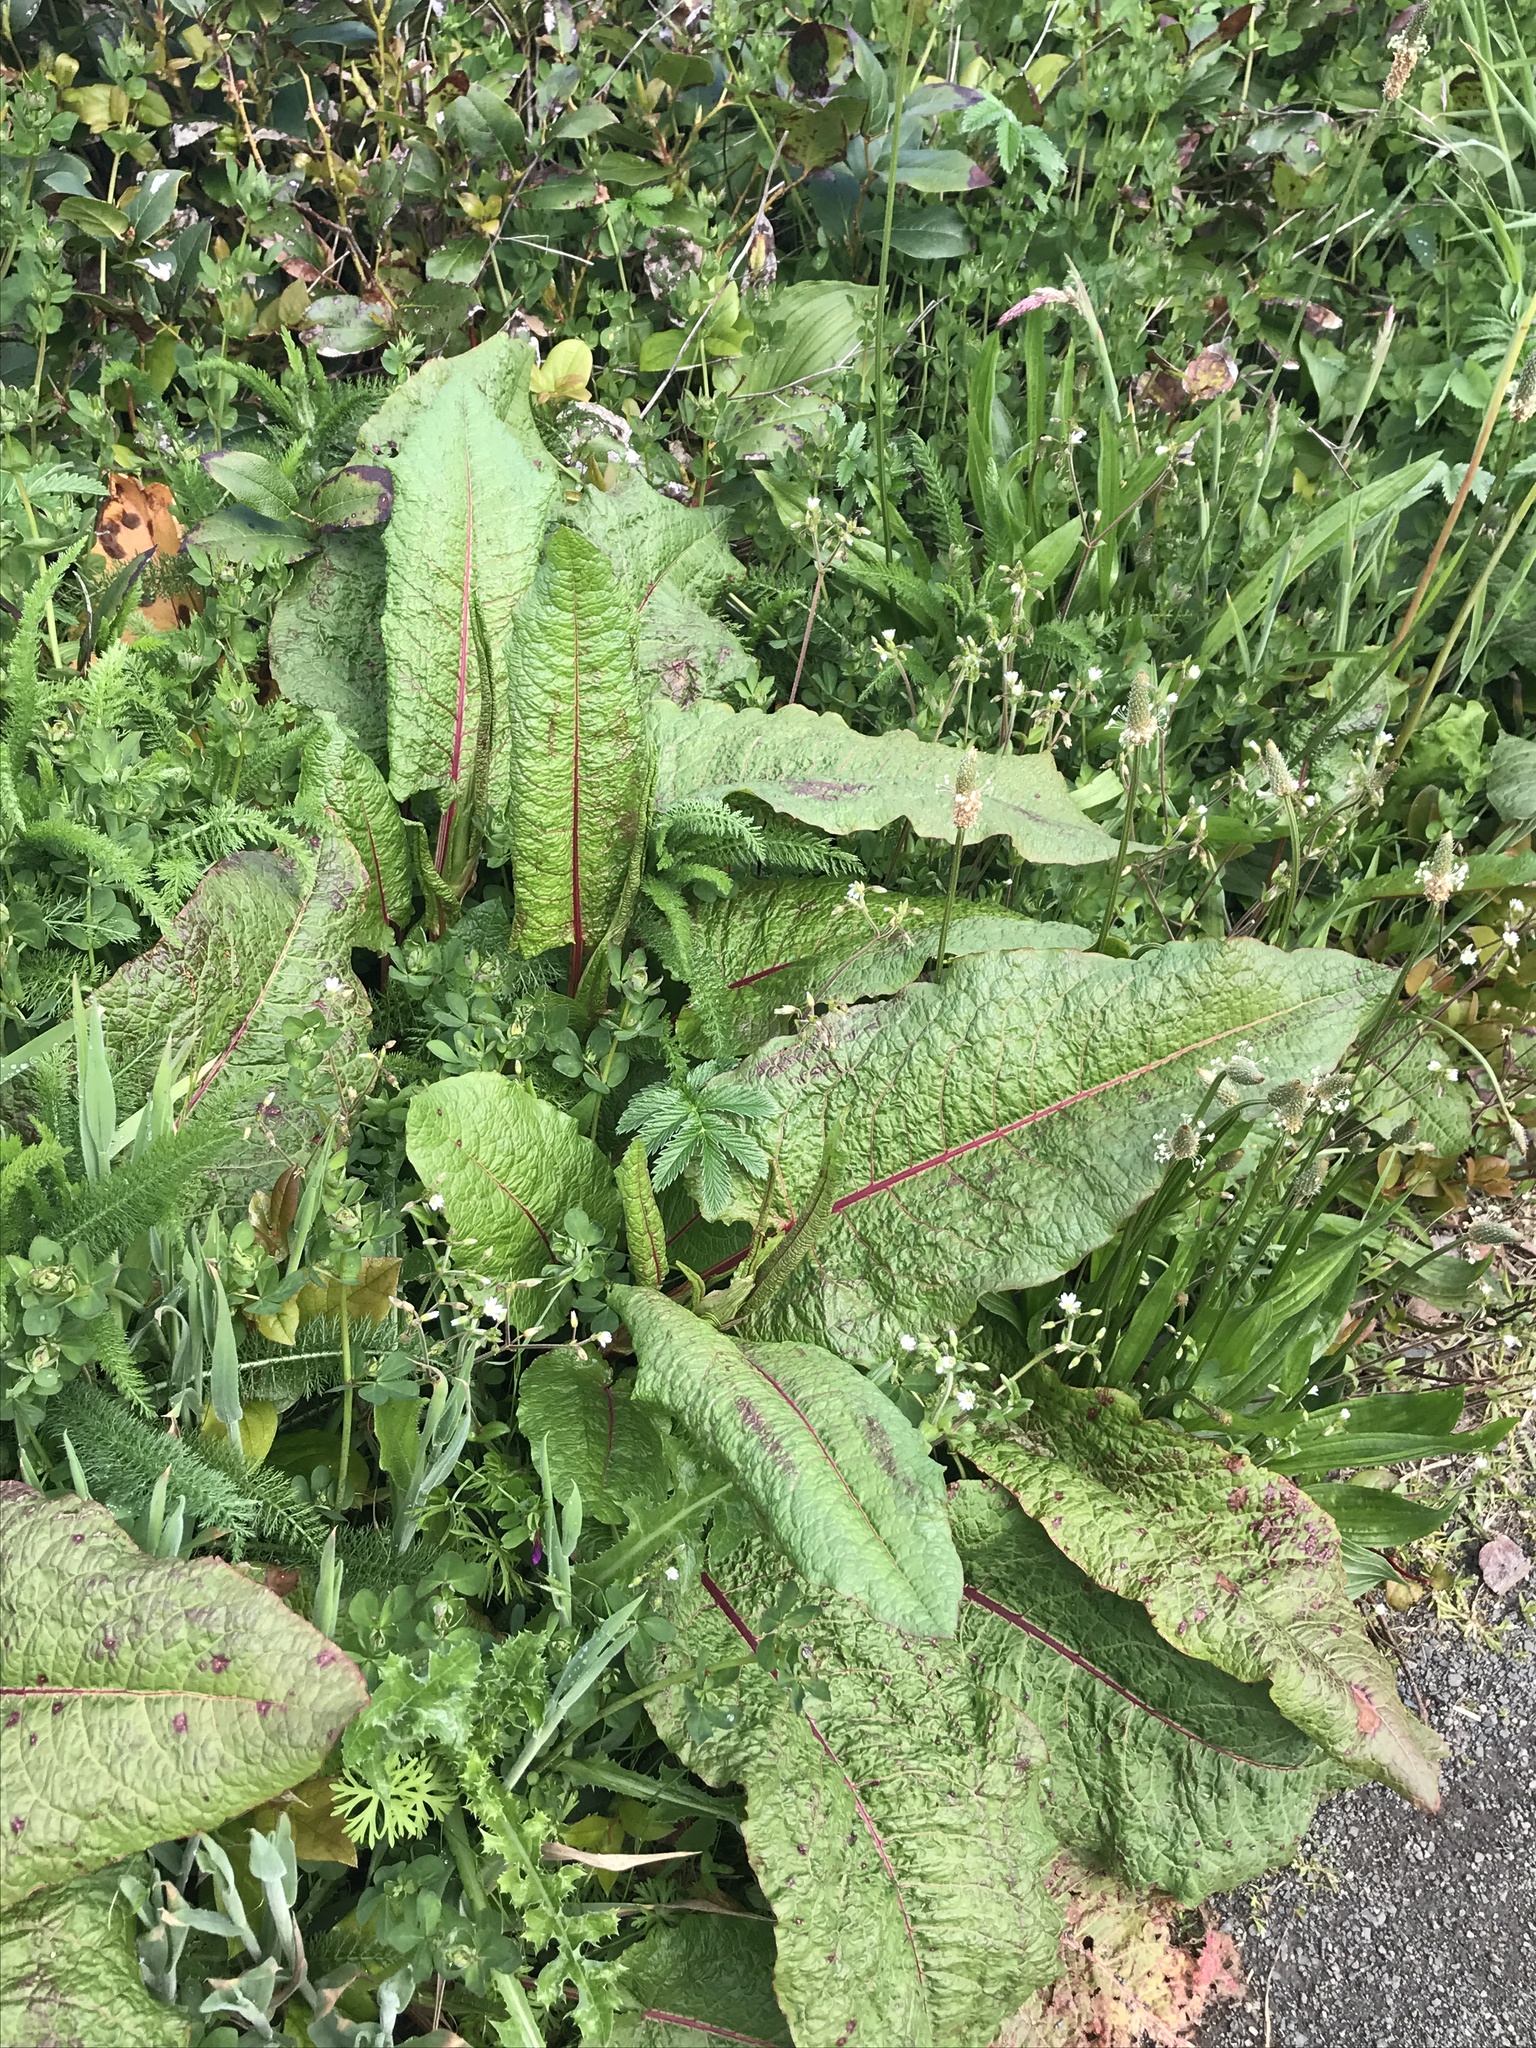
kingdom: Plantae
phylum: Tracheophyta
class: Magnoliopsida
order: Caryophyllales
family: Polygonaceae
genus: Rumex
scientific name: Rumex sanguineus
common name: Wood dock
